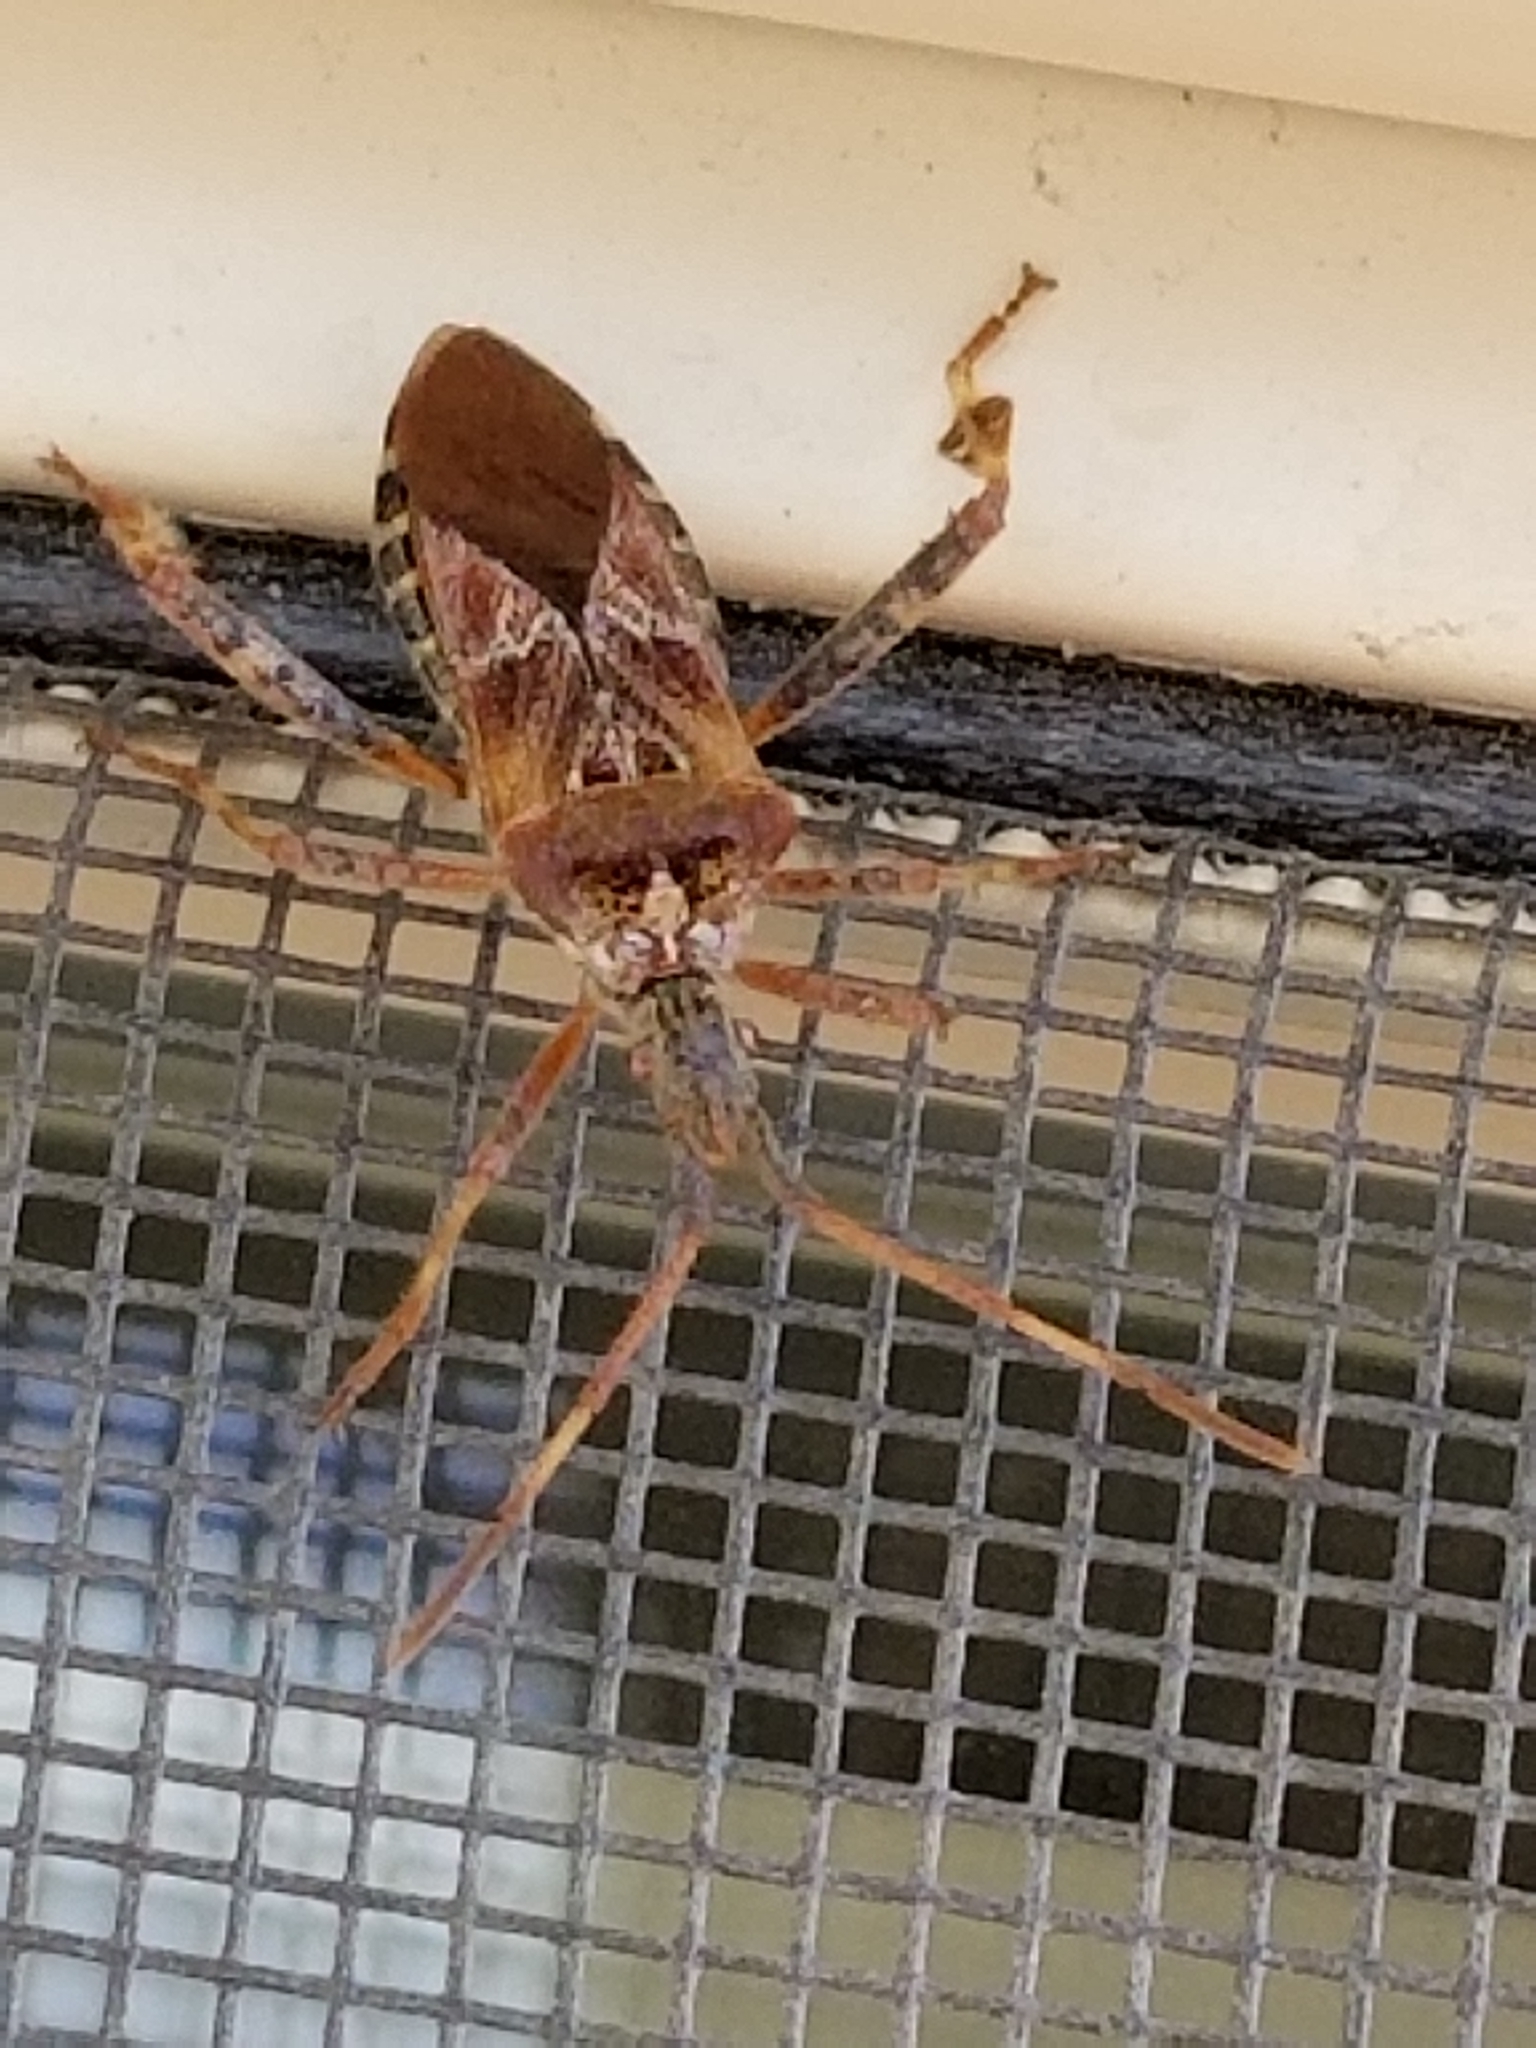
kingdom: Animalia
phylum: Arthropoda
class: Insecta
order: Hemiptera
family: Coreidae
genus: Leptoglossus
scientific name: Leptoglossus occidentalis
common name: Western conifer-seed bug
